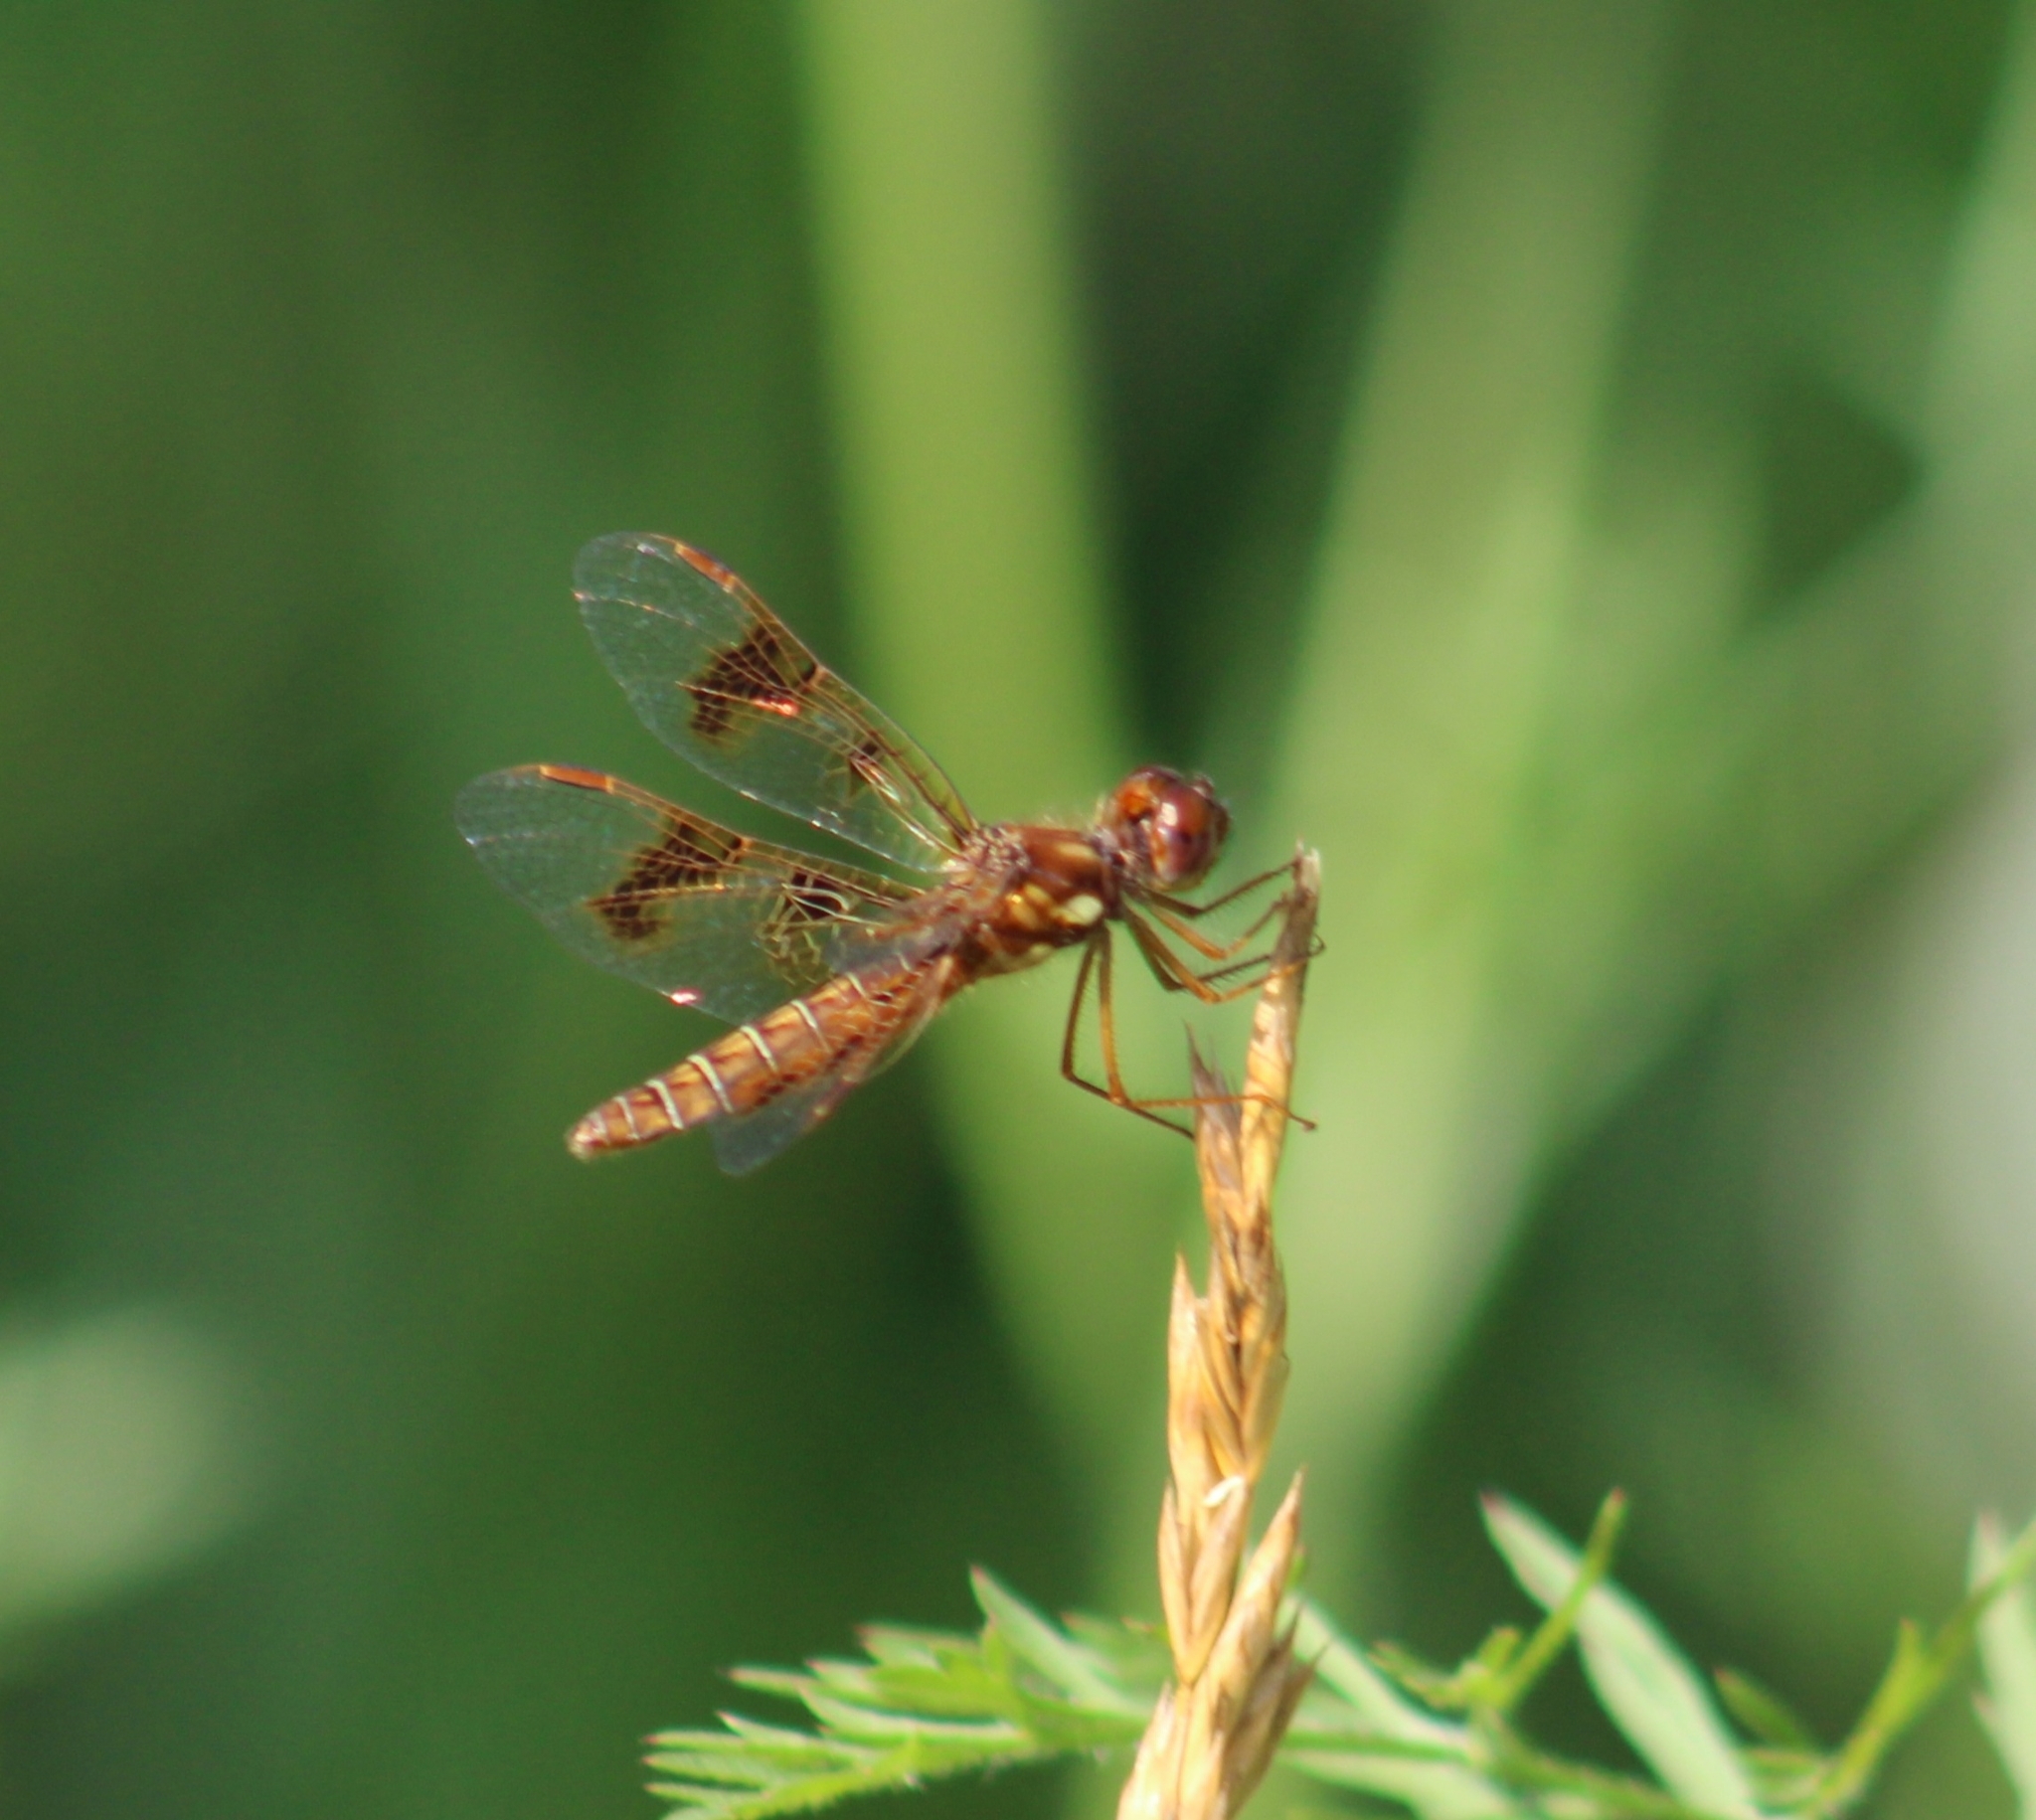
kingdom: Animalia
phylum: Arthropoda
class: Insecta
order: Odonata
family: Libellulidae
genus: Perithemis
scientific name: Perithemis tenera
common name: Eastern amberwing
